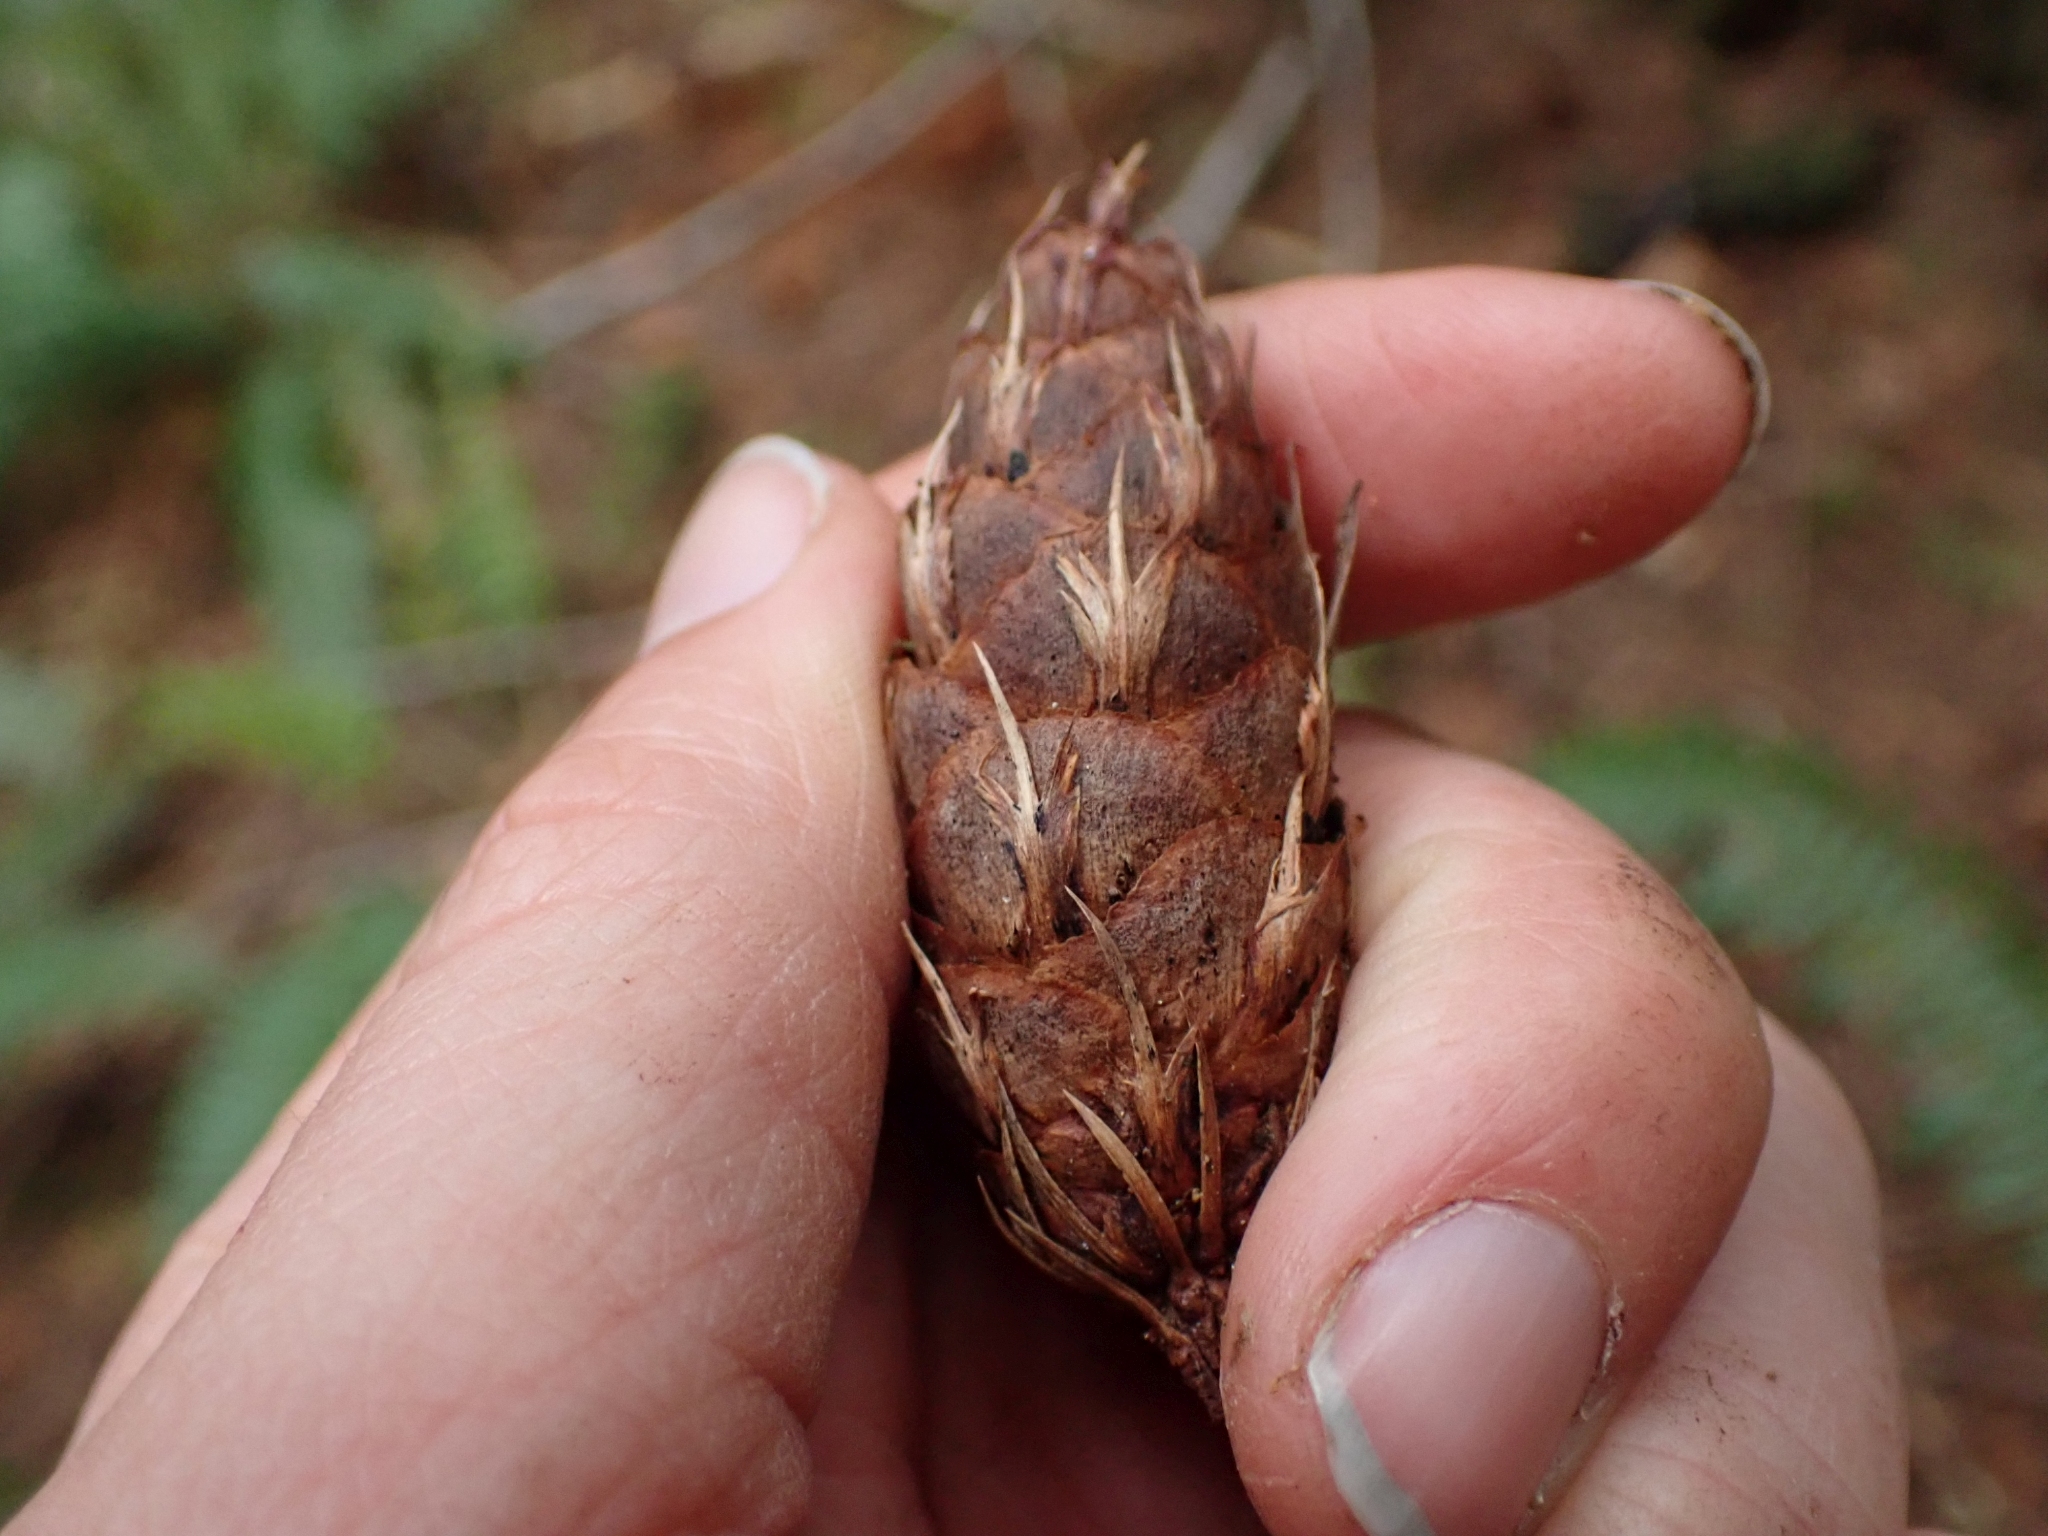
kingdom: Plantae
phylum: Tracheophyta
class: Pinopsida
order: Pinales
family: Pinaceae
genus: Pseudotsuga
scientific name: Pseudotsuga menziesii
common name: Douglas fir
